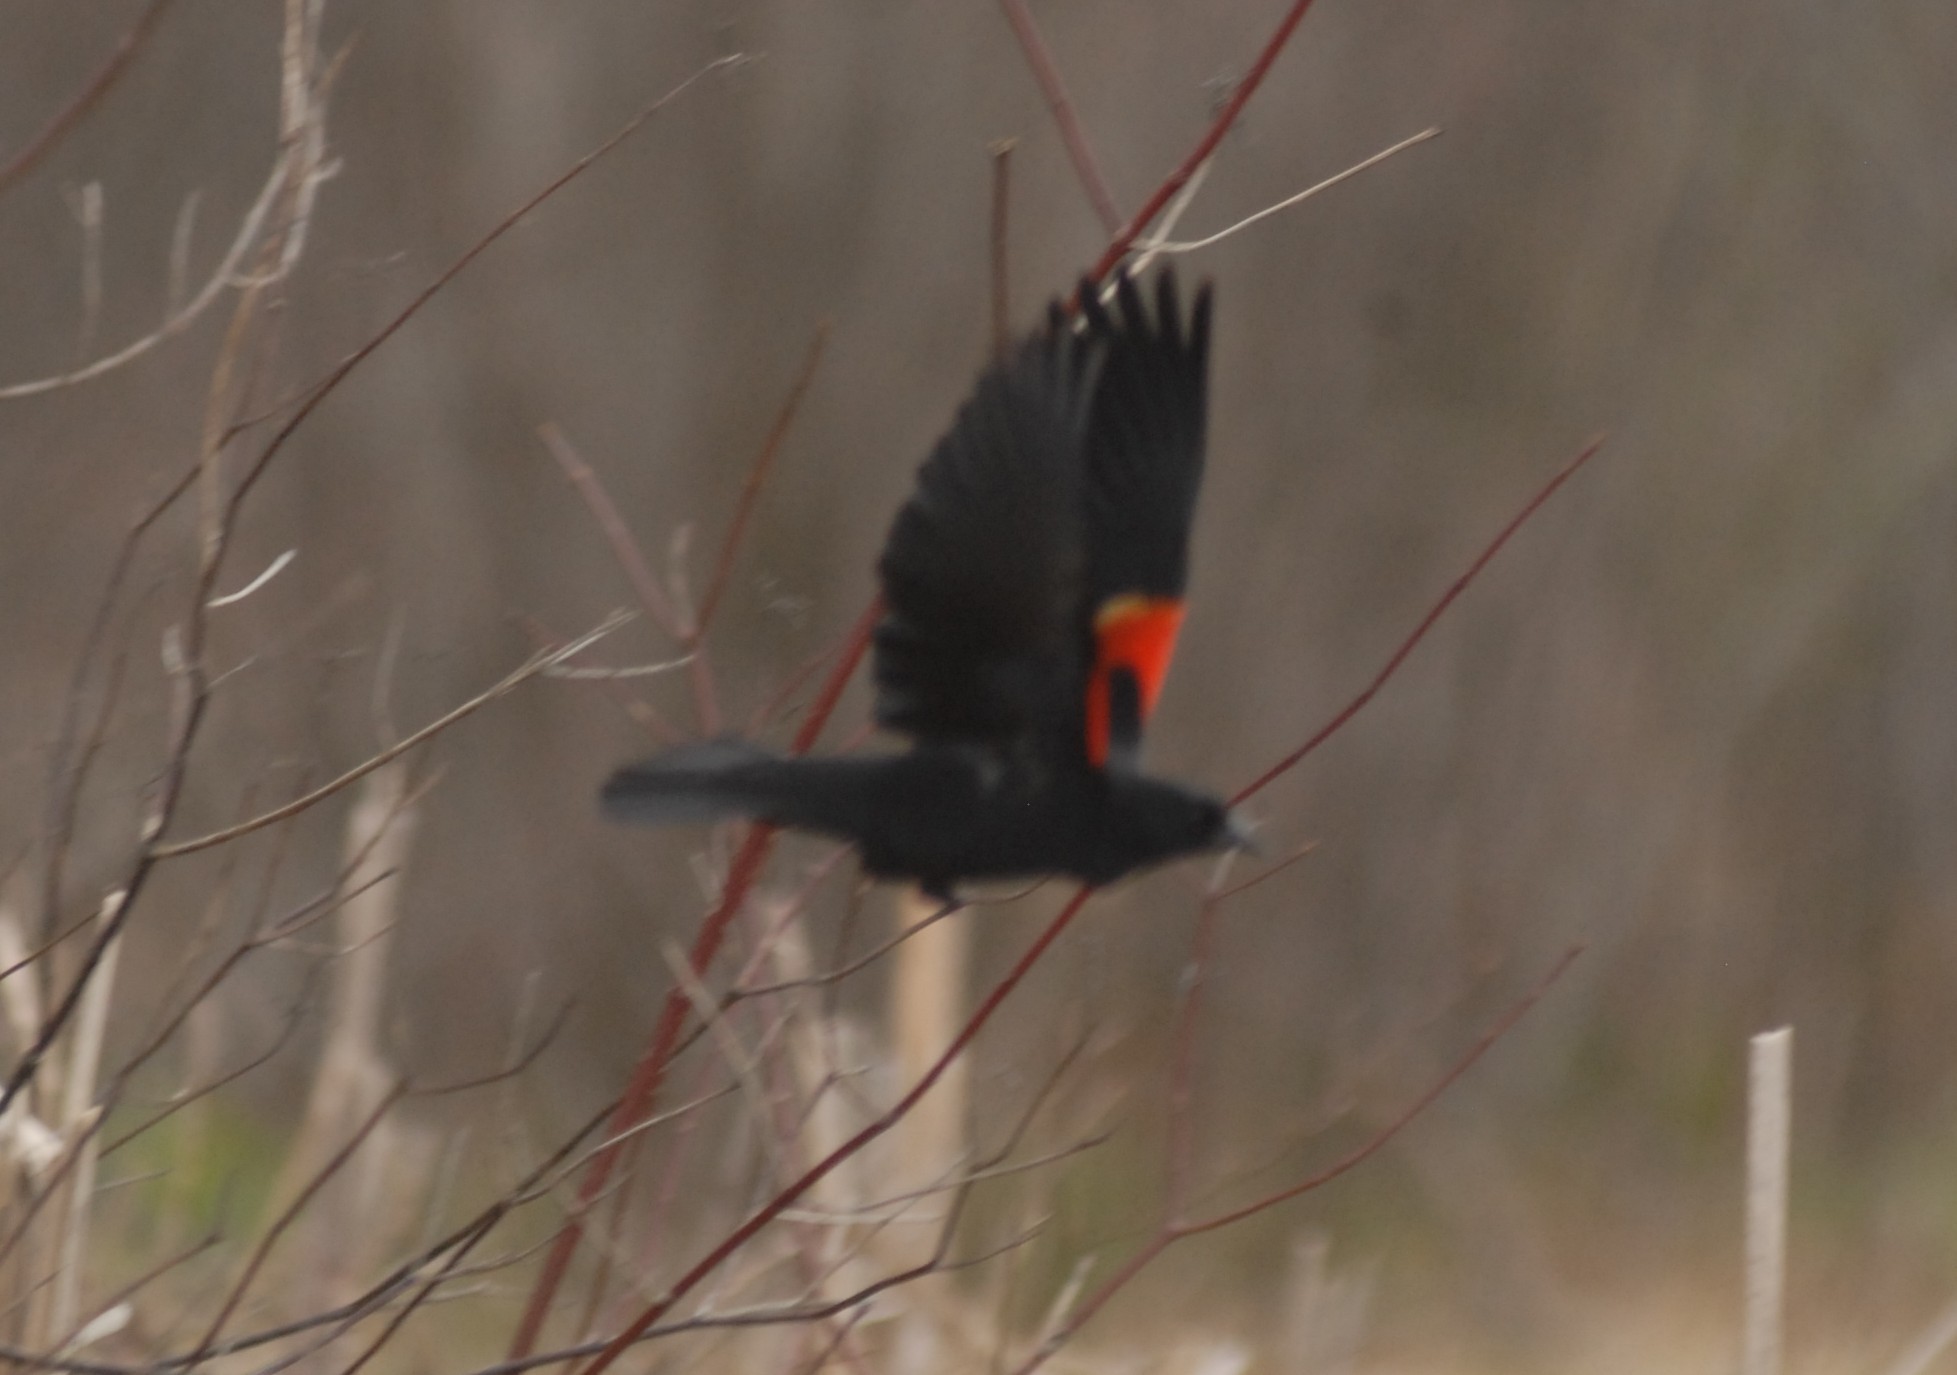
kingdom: Animalia
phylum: Chordata
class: Aves
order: Passeriformes
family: Icteridae
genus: Agelaius
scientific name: Agelaius phoeniceus
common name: Red-winged blackbird
